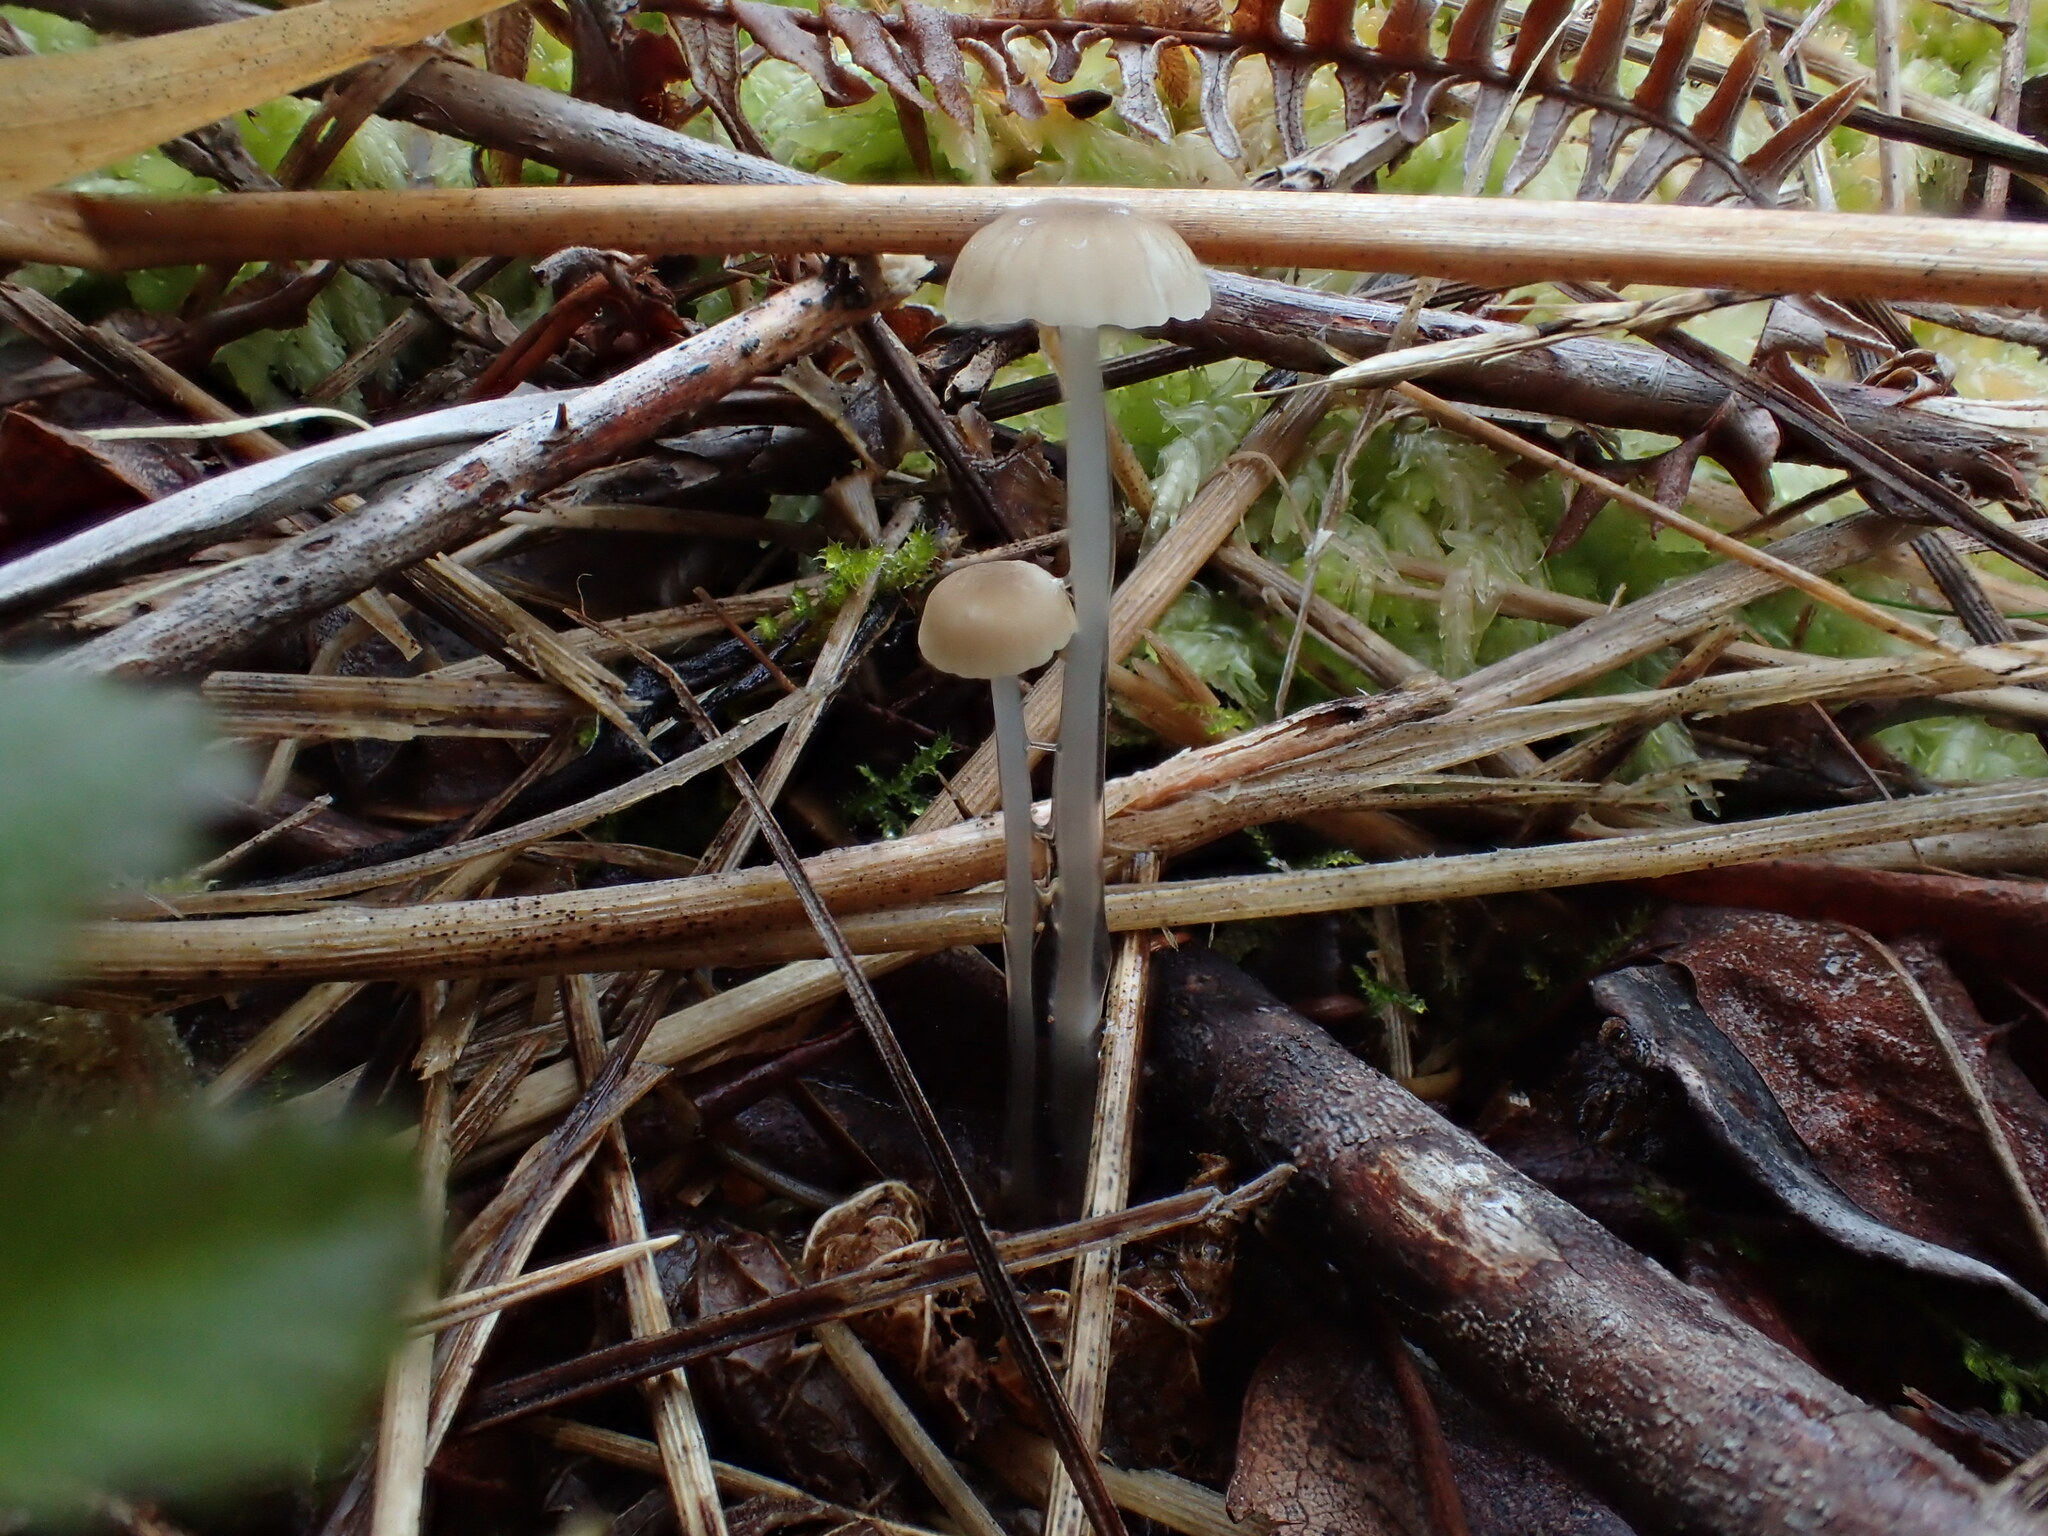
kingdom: Fungi
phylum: Basidiomycota
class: Agaricomycetes
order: Agaricales
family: Mycenaceae
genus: Roridomyces
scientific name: Roridomyces roridus
